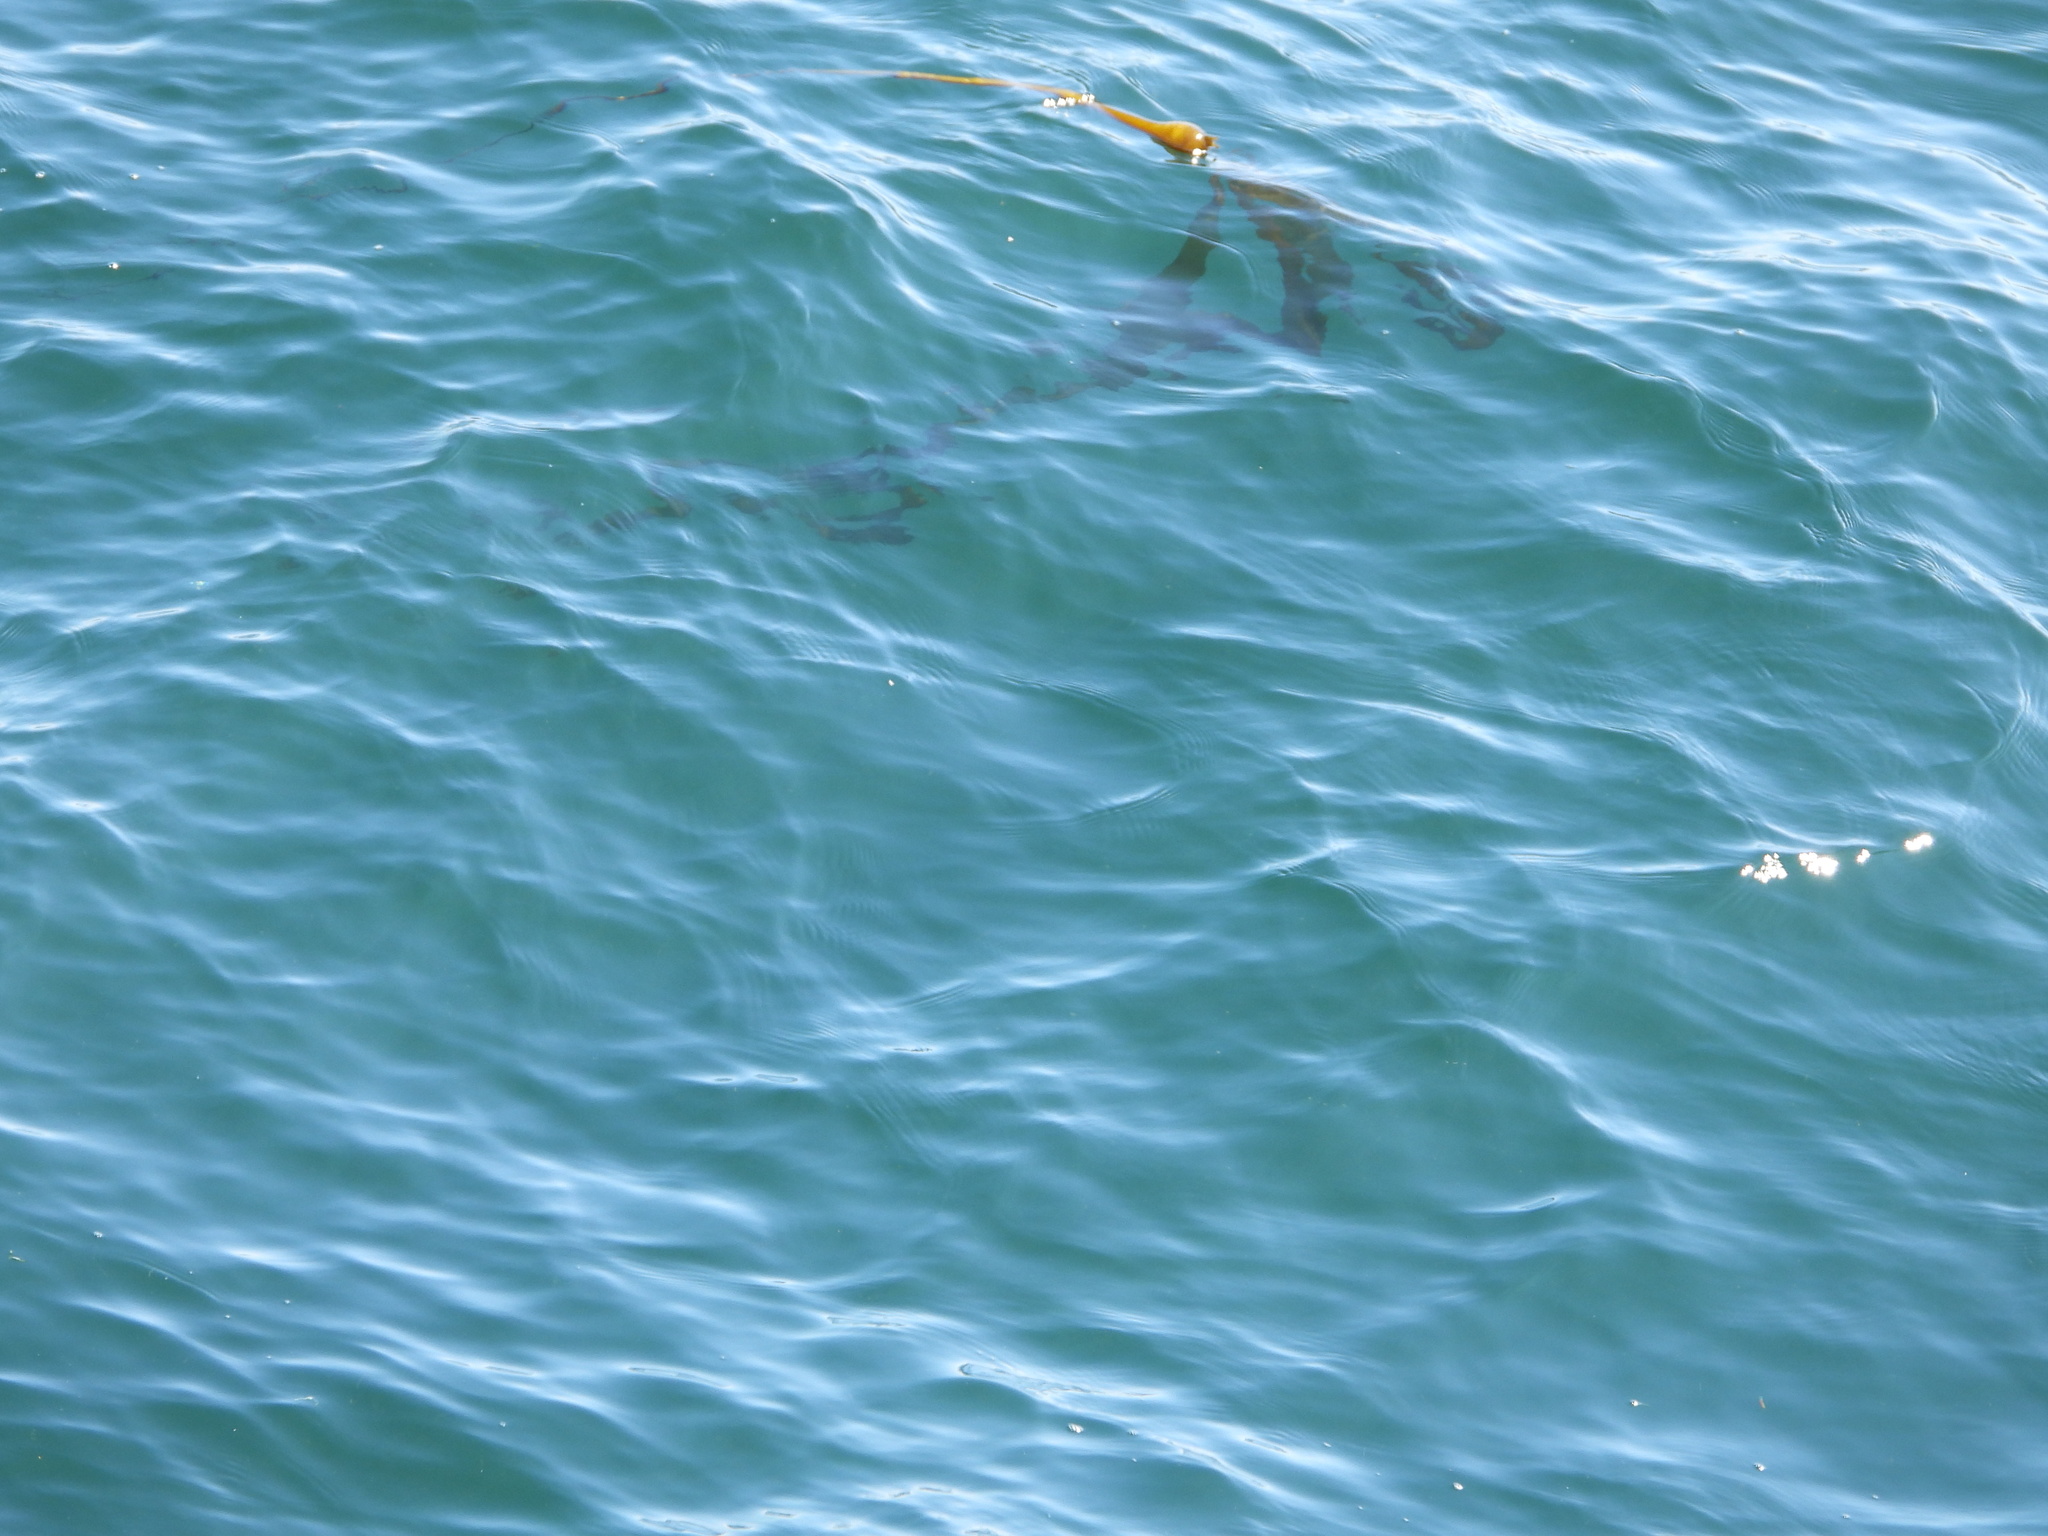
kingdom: Chromista
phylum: Ochrophyta
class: Phaeophyceae
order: Laminariales
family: Laminariaceae
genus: Nereocystis
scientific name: Nereocystis luetkeana
